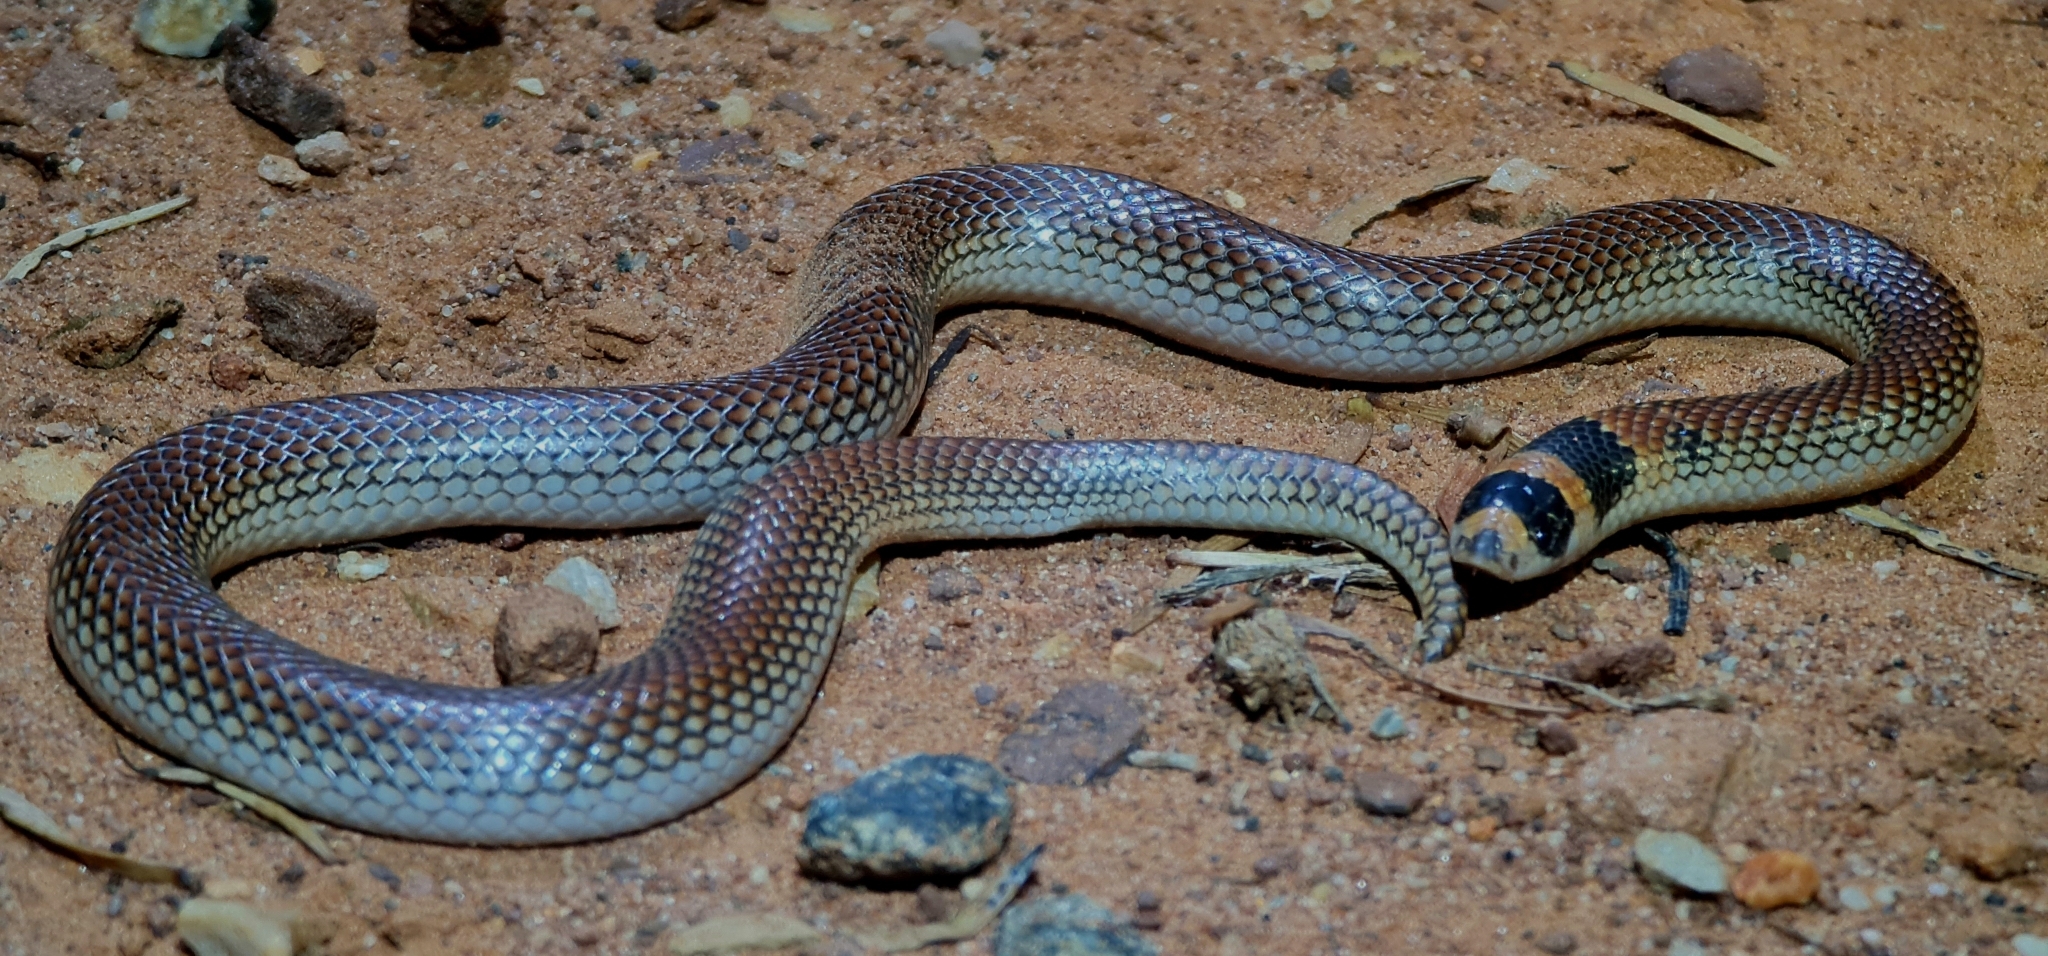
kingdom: Animalia
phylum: Chordata
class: Squamata
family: Elapidae
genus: Brachyurophis
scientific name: Brachyurophis incinctus
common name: Unbanded shovel-nosed snake
